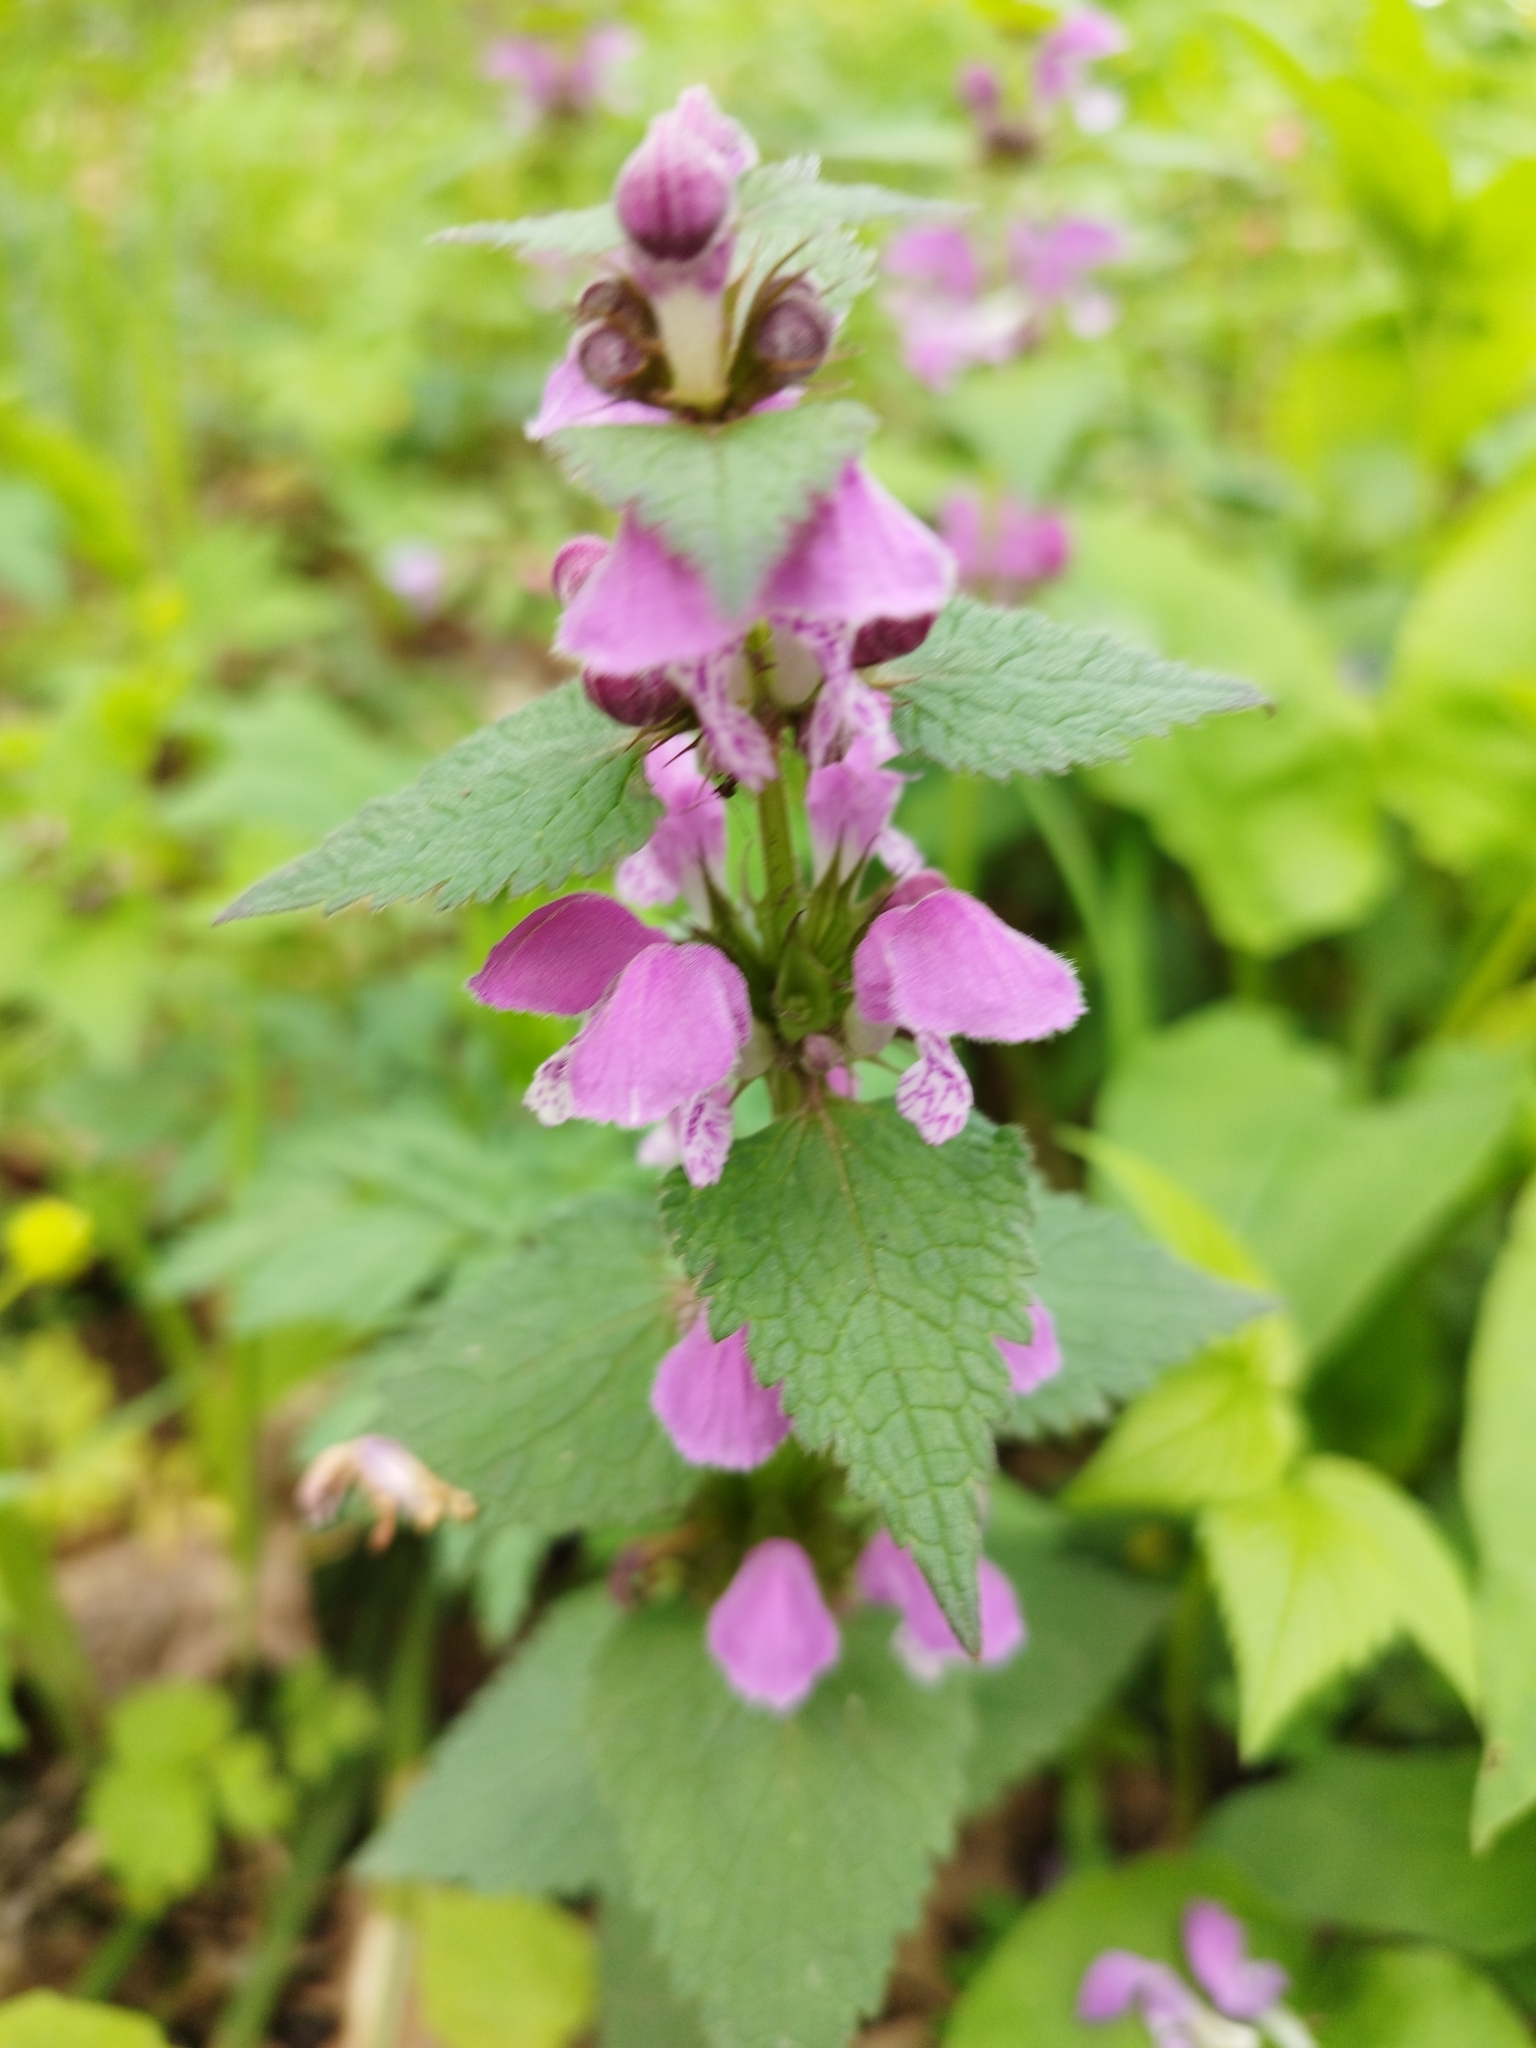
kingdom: Plantae
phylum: Tracheophyta
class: Magnoliopsida
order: Lamiales
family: Lamiaceae
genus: Lamium
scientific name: Lamium maculatum
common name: Spotted dead-nettle
